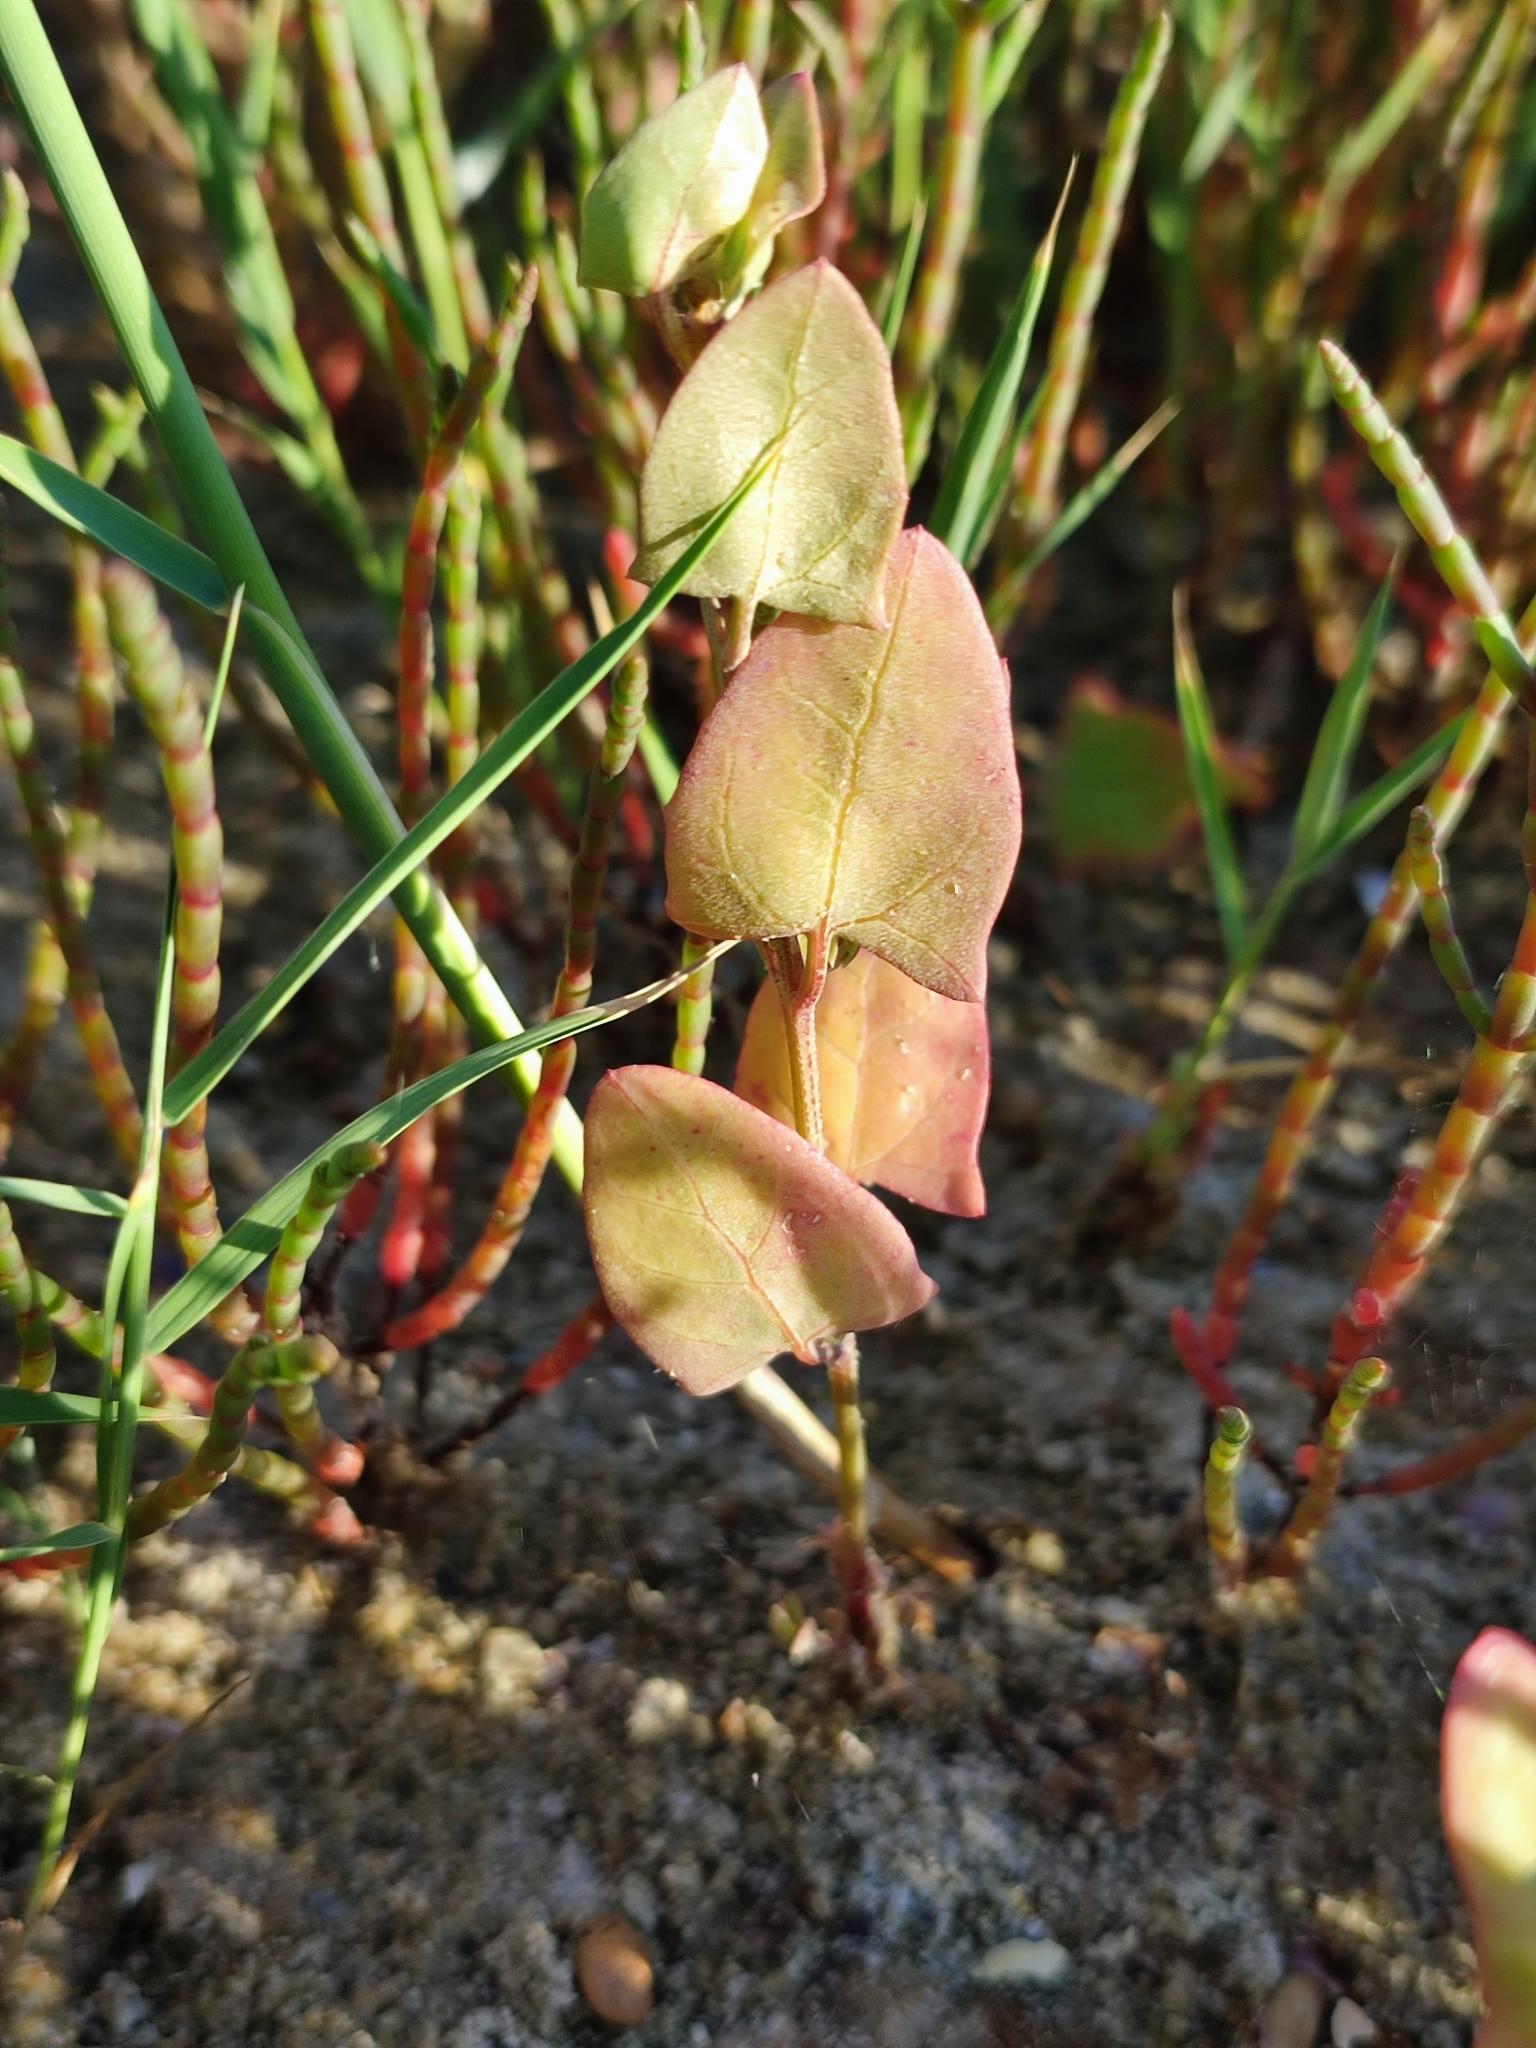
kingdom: Plantae
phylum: Tracheophyta
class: Magnoliopsida
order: Caryophyllales
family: Amaranthaceae
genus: Atriplex
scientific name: Atriplex prostrata
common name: Spear-leaved orache
